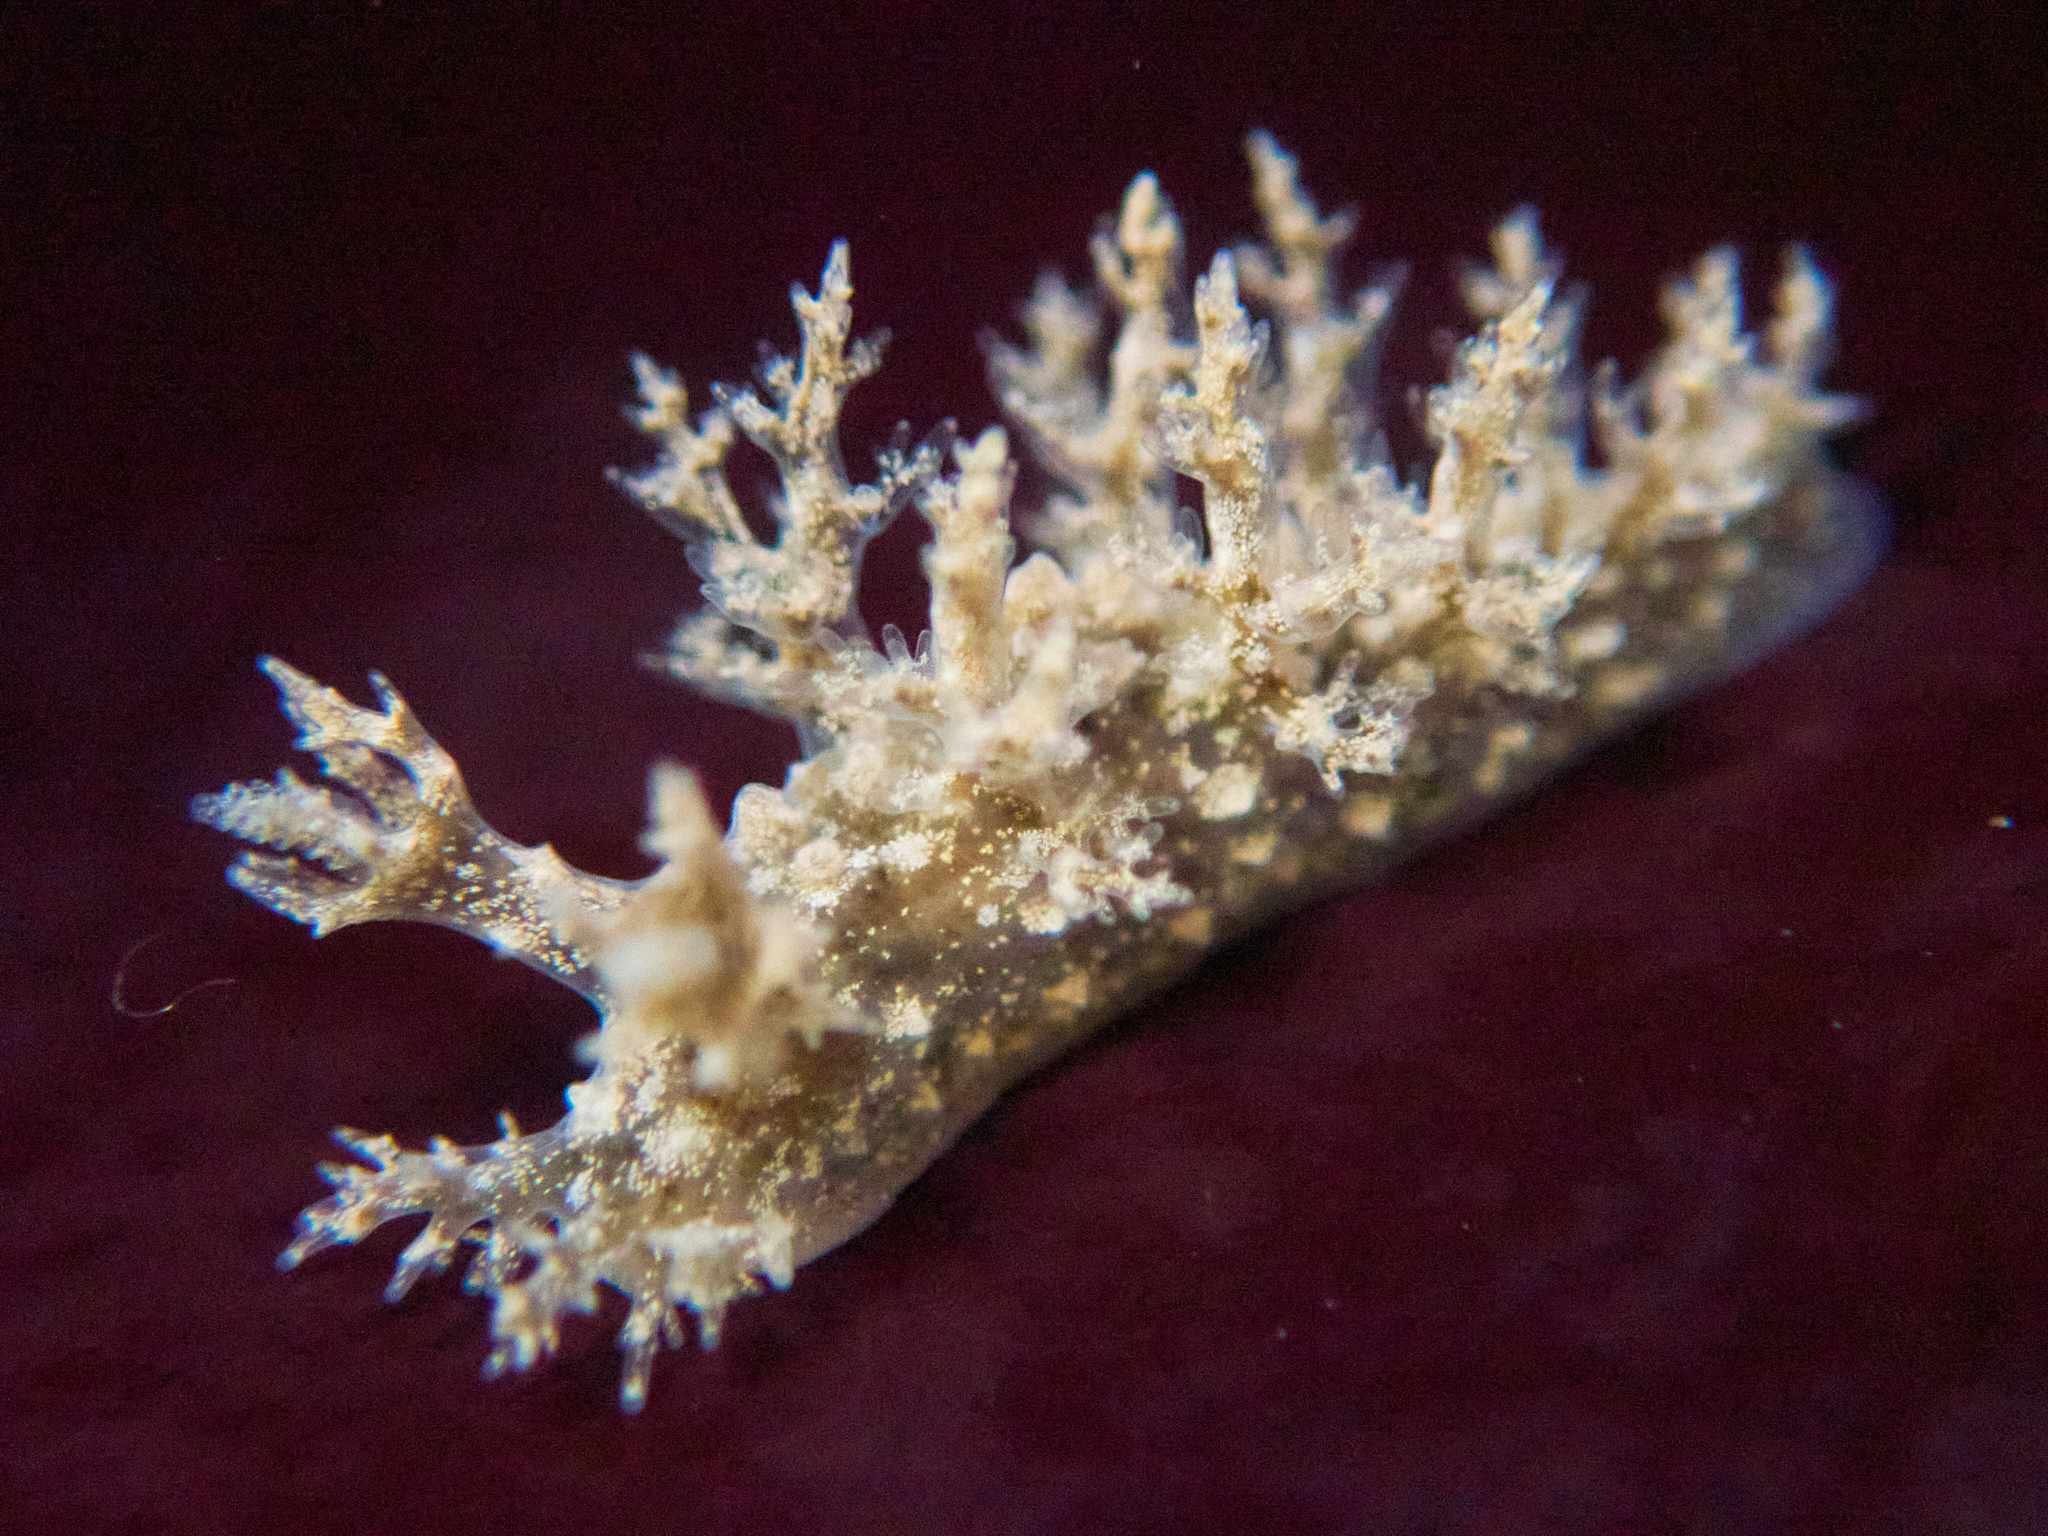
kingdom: Animalia
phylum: Mollusca
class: Gastropoda
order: Nudibranchia
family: Dendronotidae
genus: Dendronotus
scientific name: Dendronotus venustus
